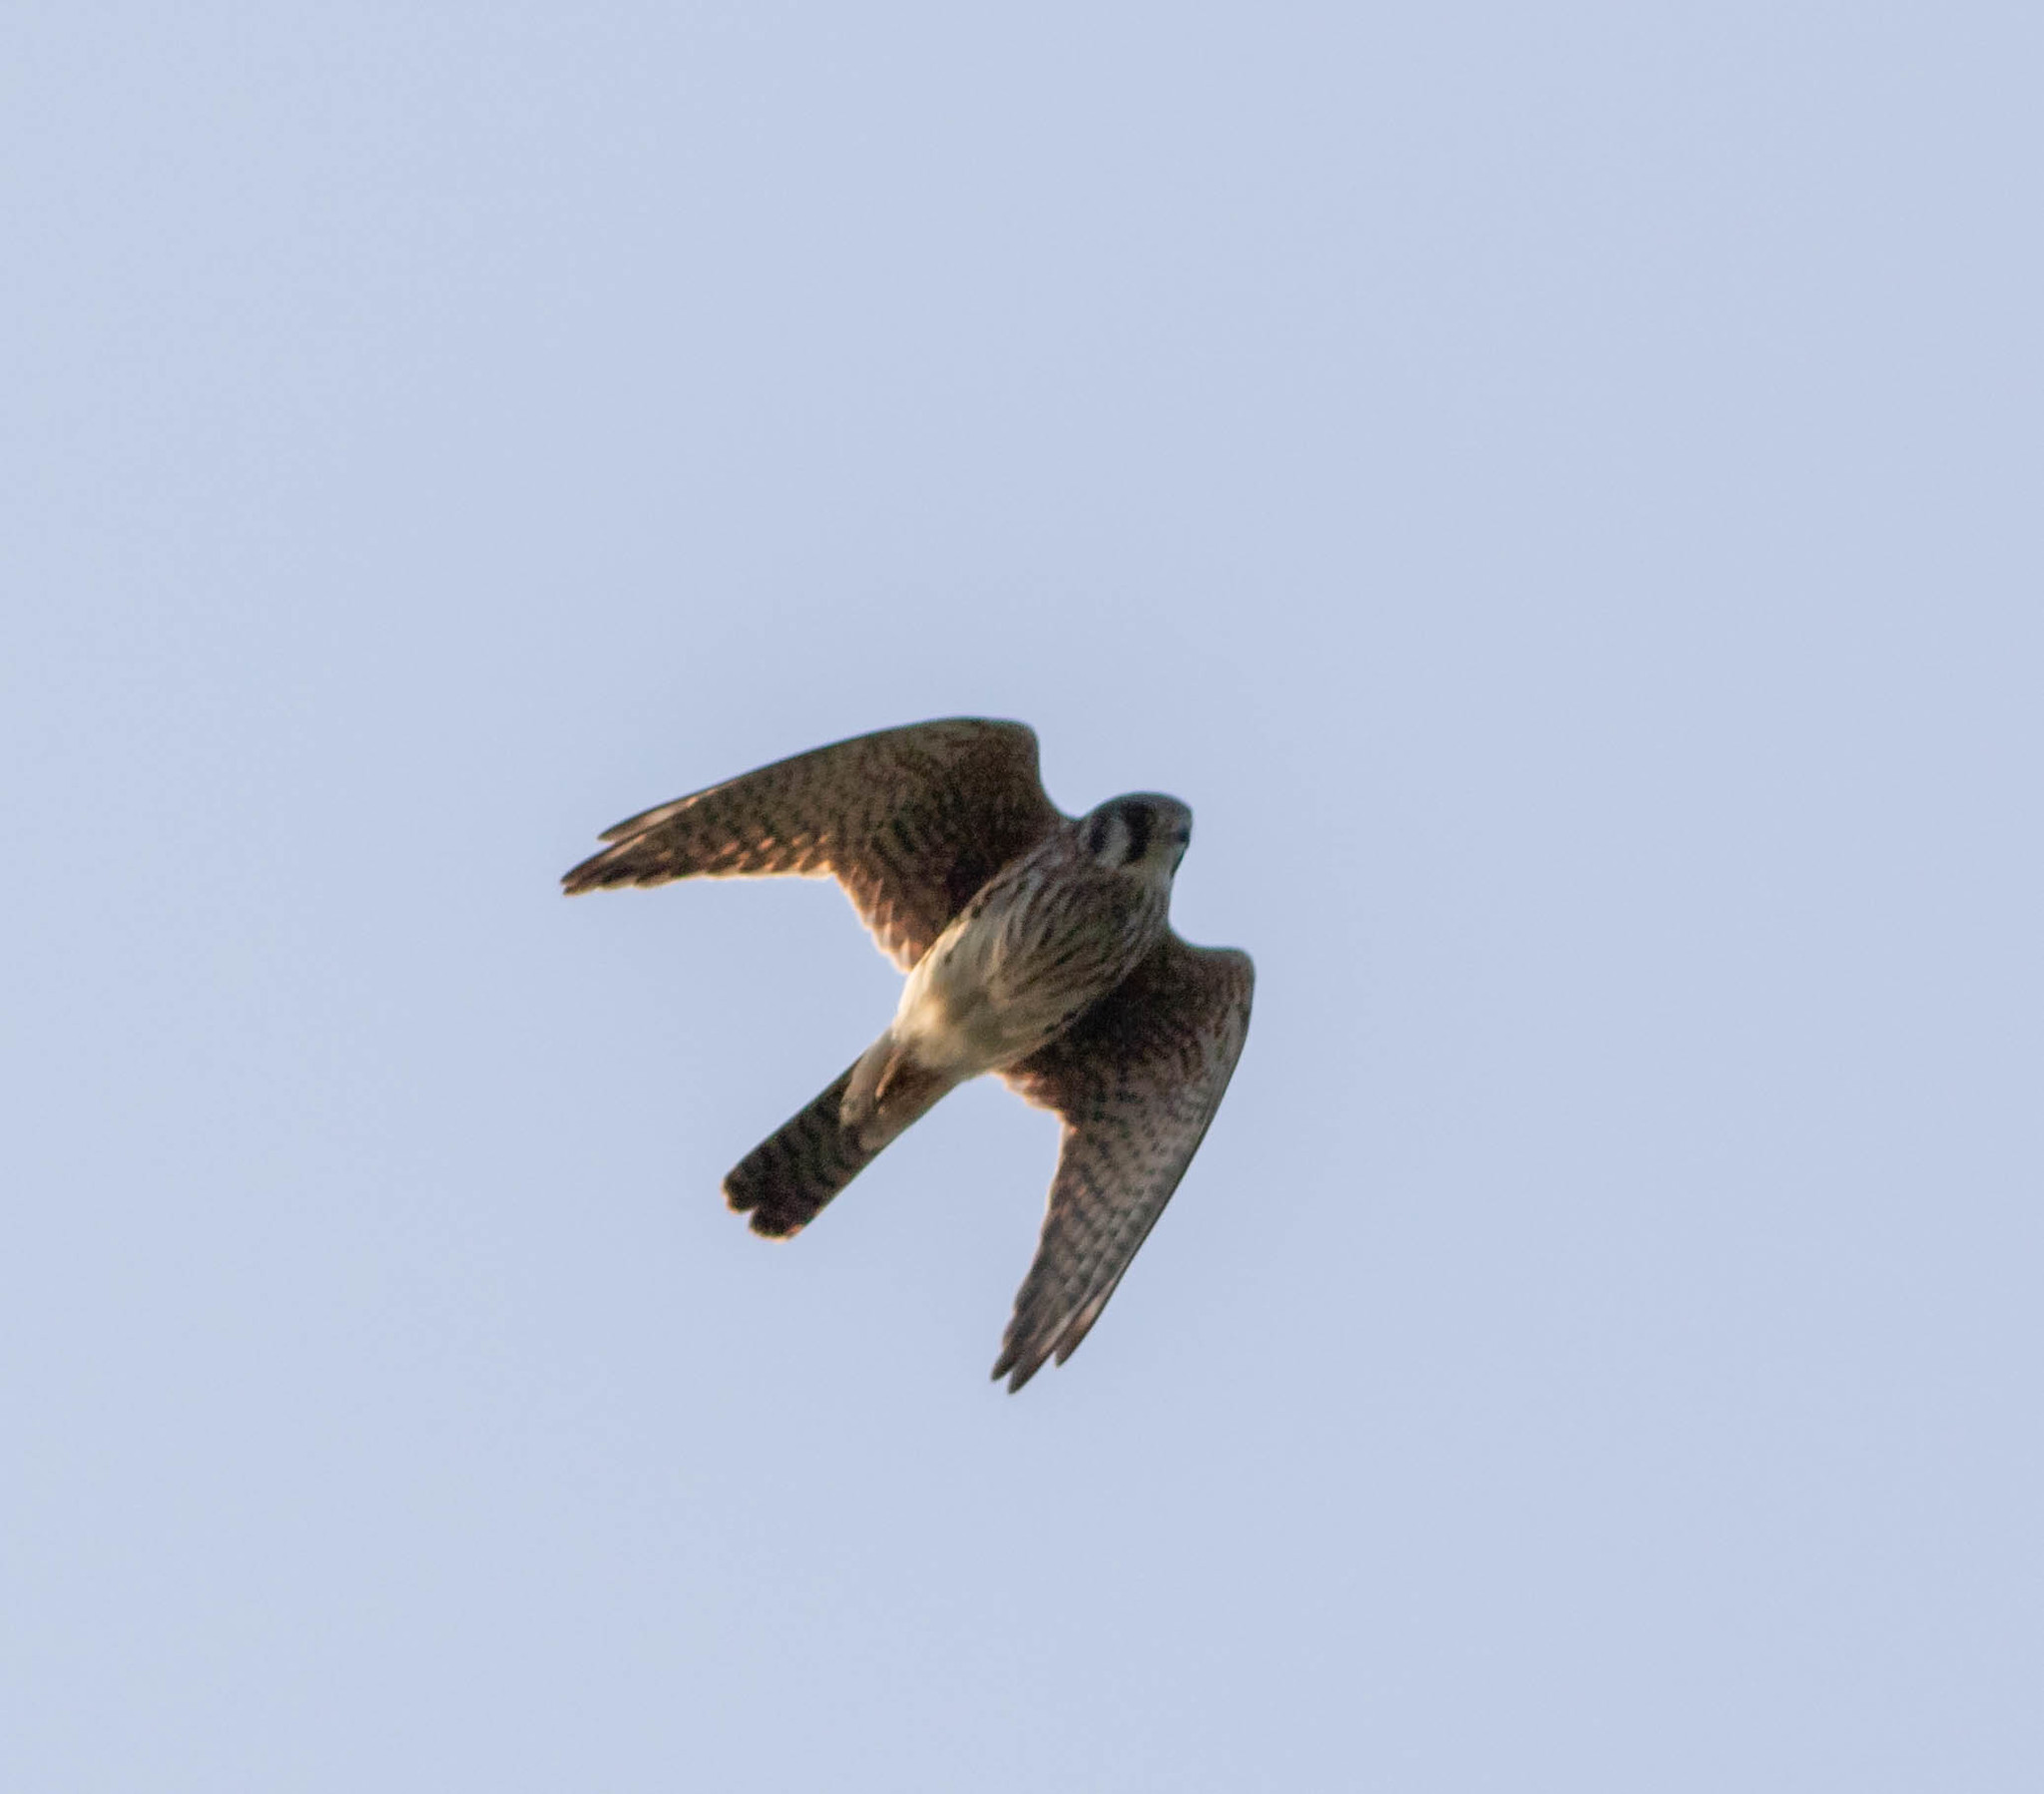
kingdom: Animalia
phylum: Chordata
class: Aves
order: Falconiformes
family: Falconidae
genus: Falco
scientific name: Falco sparverius
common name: American kestrel
